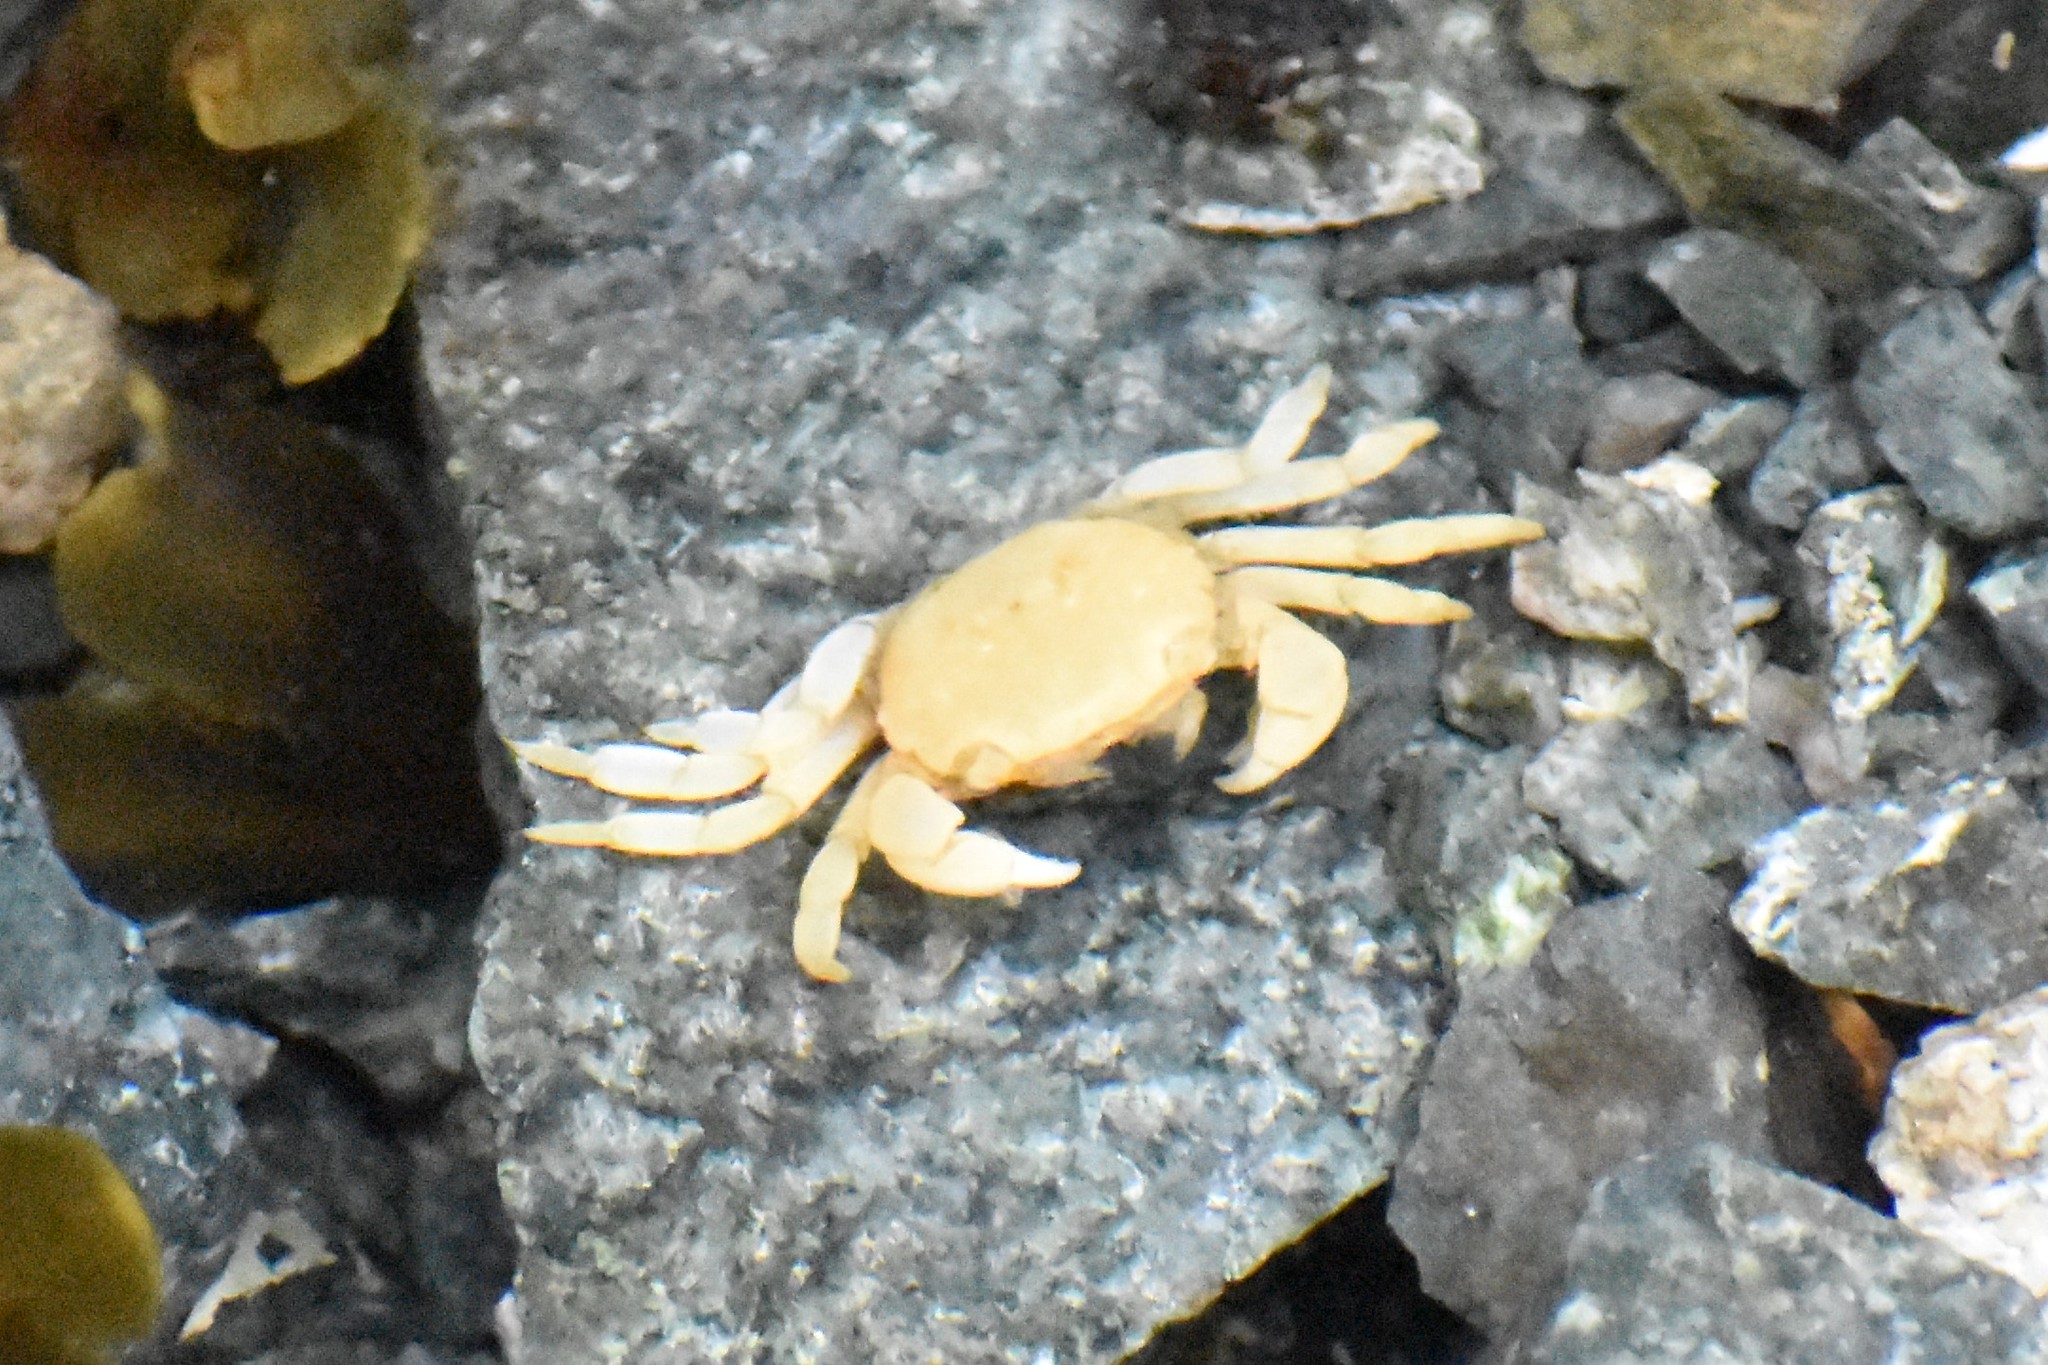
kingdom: Animalia
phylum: Arthropoda
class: Malacostraca
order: Decapoda
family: Varunidae
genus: Hemigrapsus
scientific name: Hemigrapsus nudus
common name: Purple shore crab
